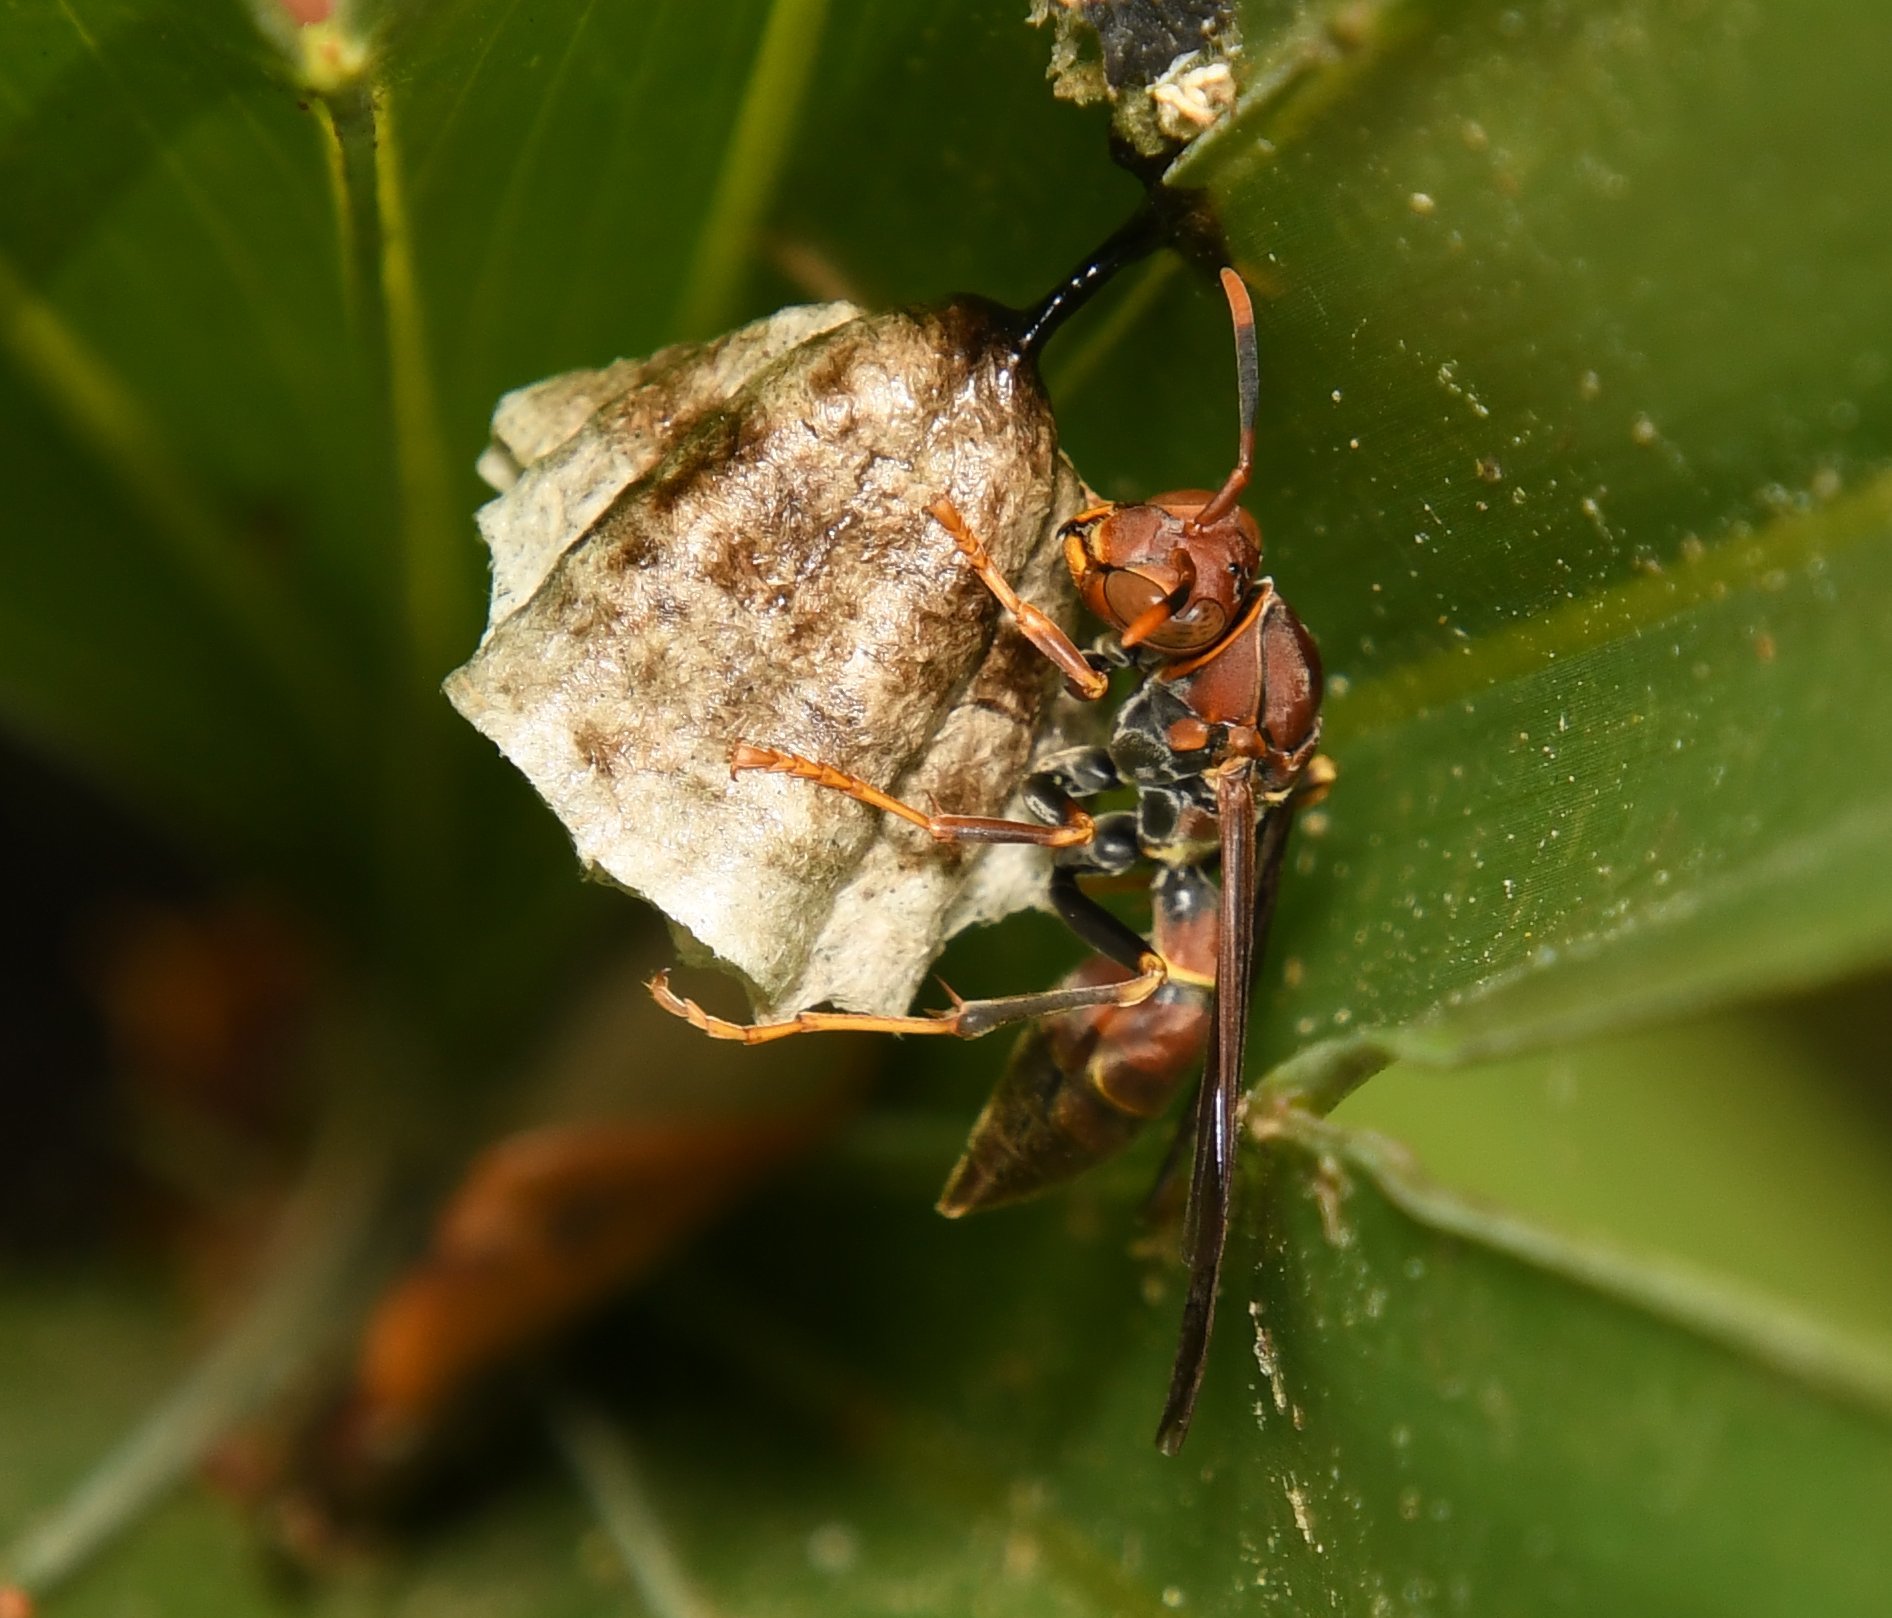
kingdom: Animalia
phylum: Arthropoda
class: Insecta
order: Hymenoptera
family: Eumenidae
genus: Polistes
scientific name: Polistes bahamensis
